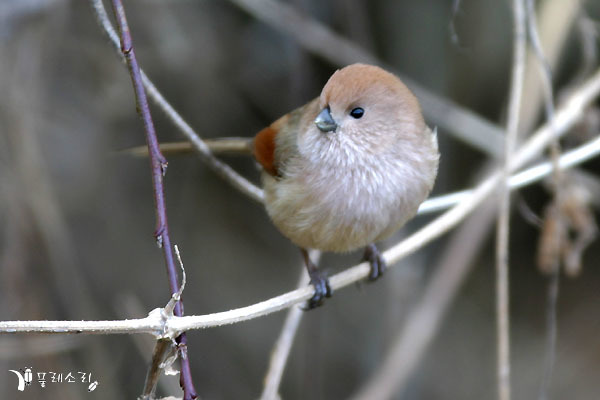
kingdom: Animalia
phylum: Chordata
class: Aves
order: Passeriformes
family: Sylviidae
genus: Sinosuthora
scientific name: Sinosuthora webbiana
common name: Vinous-throated parrotbill
